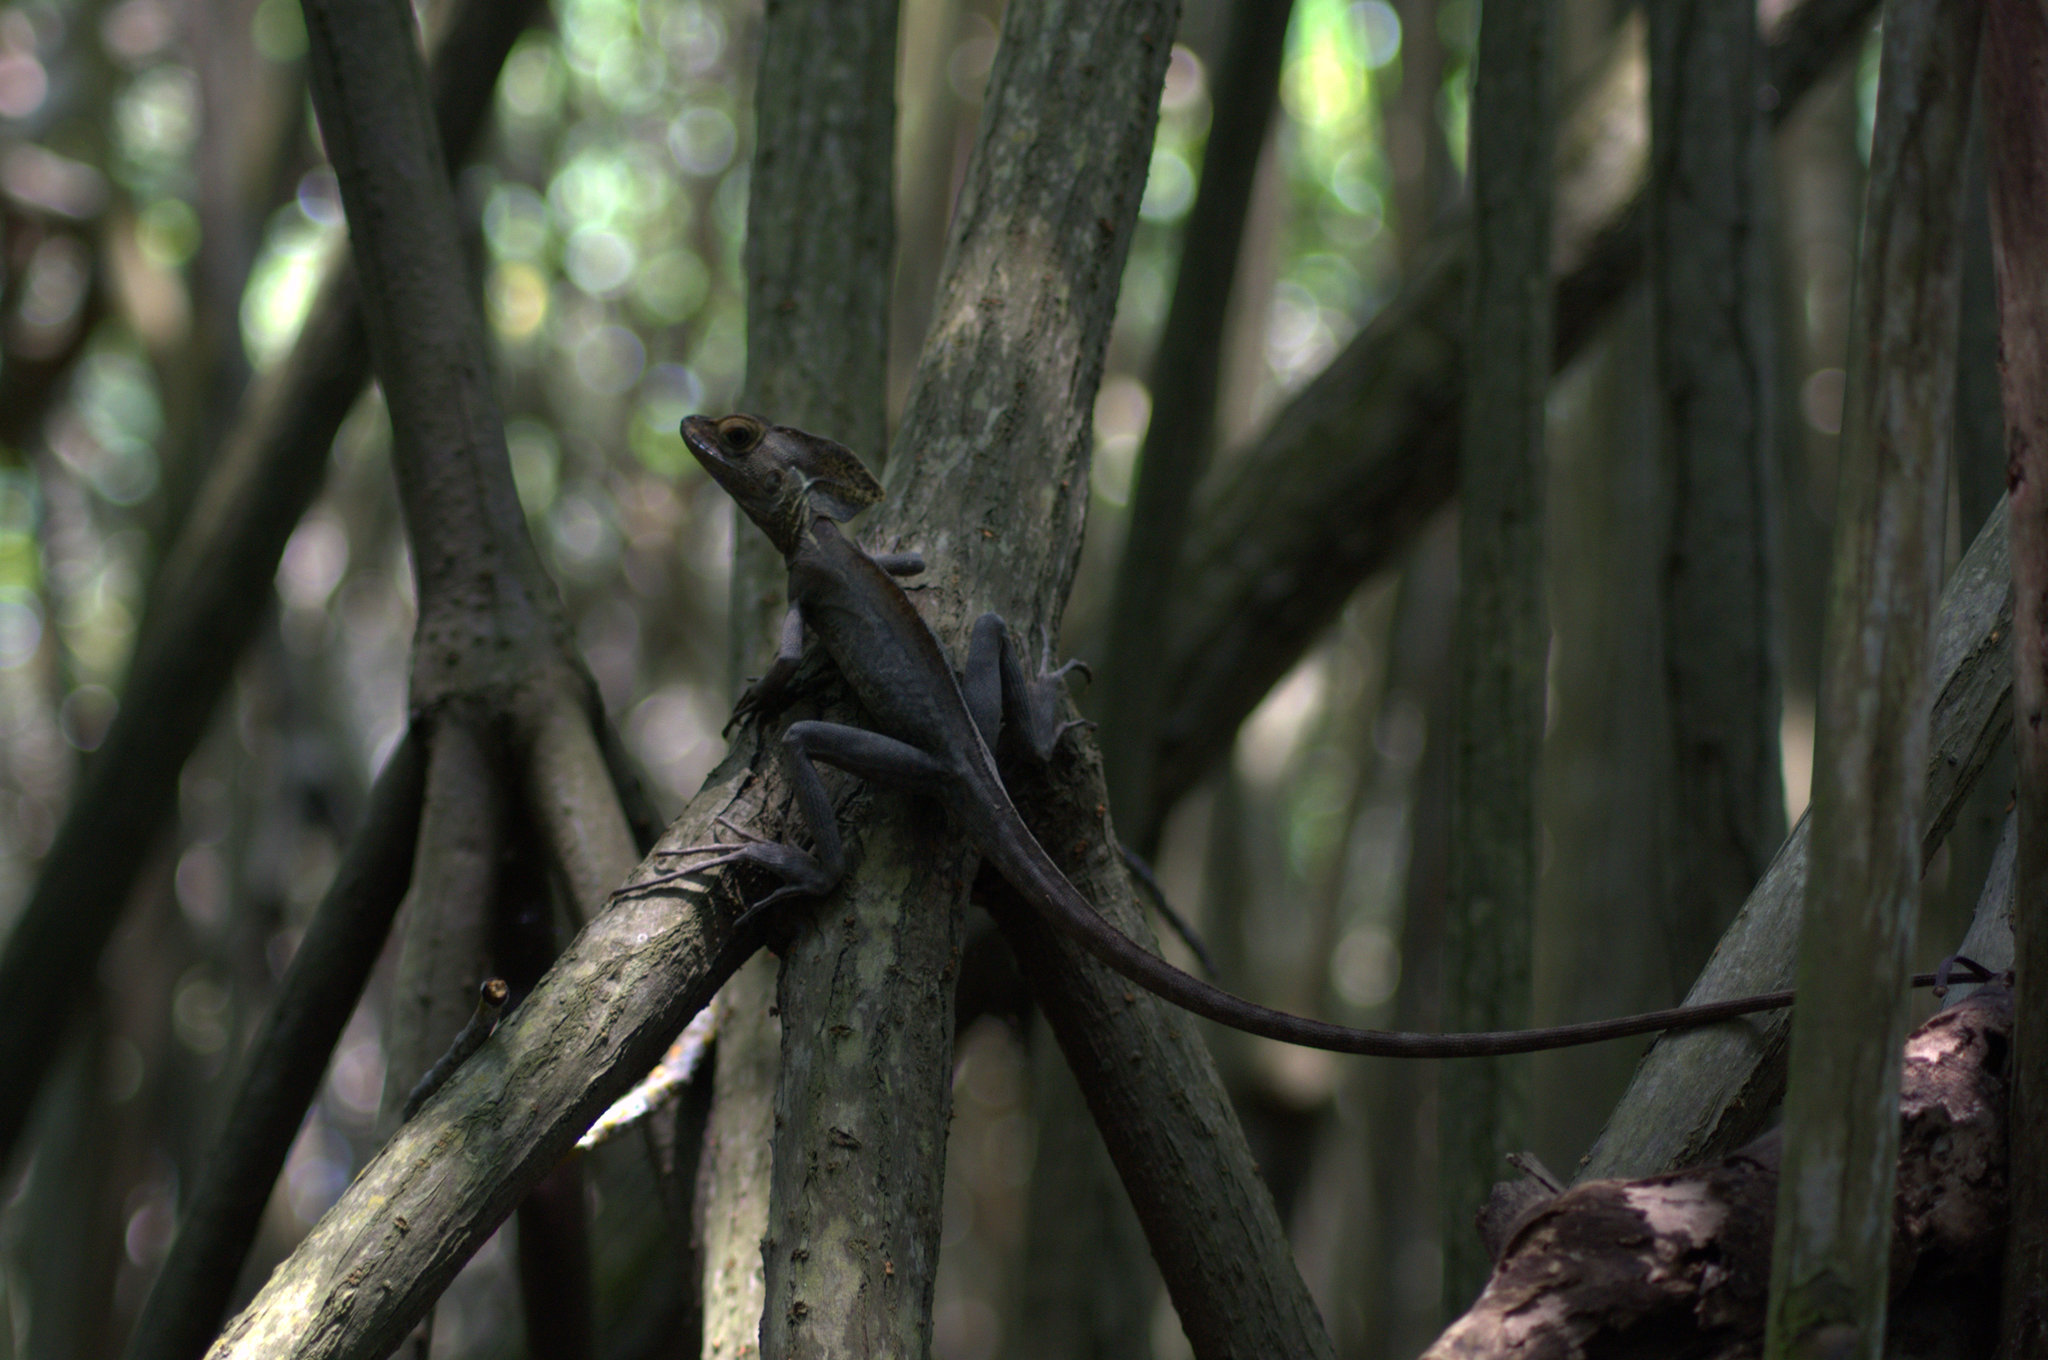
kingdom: Animalia
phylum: Chordata
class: Squamata
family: Corytophanidae
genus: Basiliscus
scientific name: Basiliscus vittatus
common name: Brown basilisk
